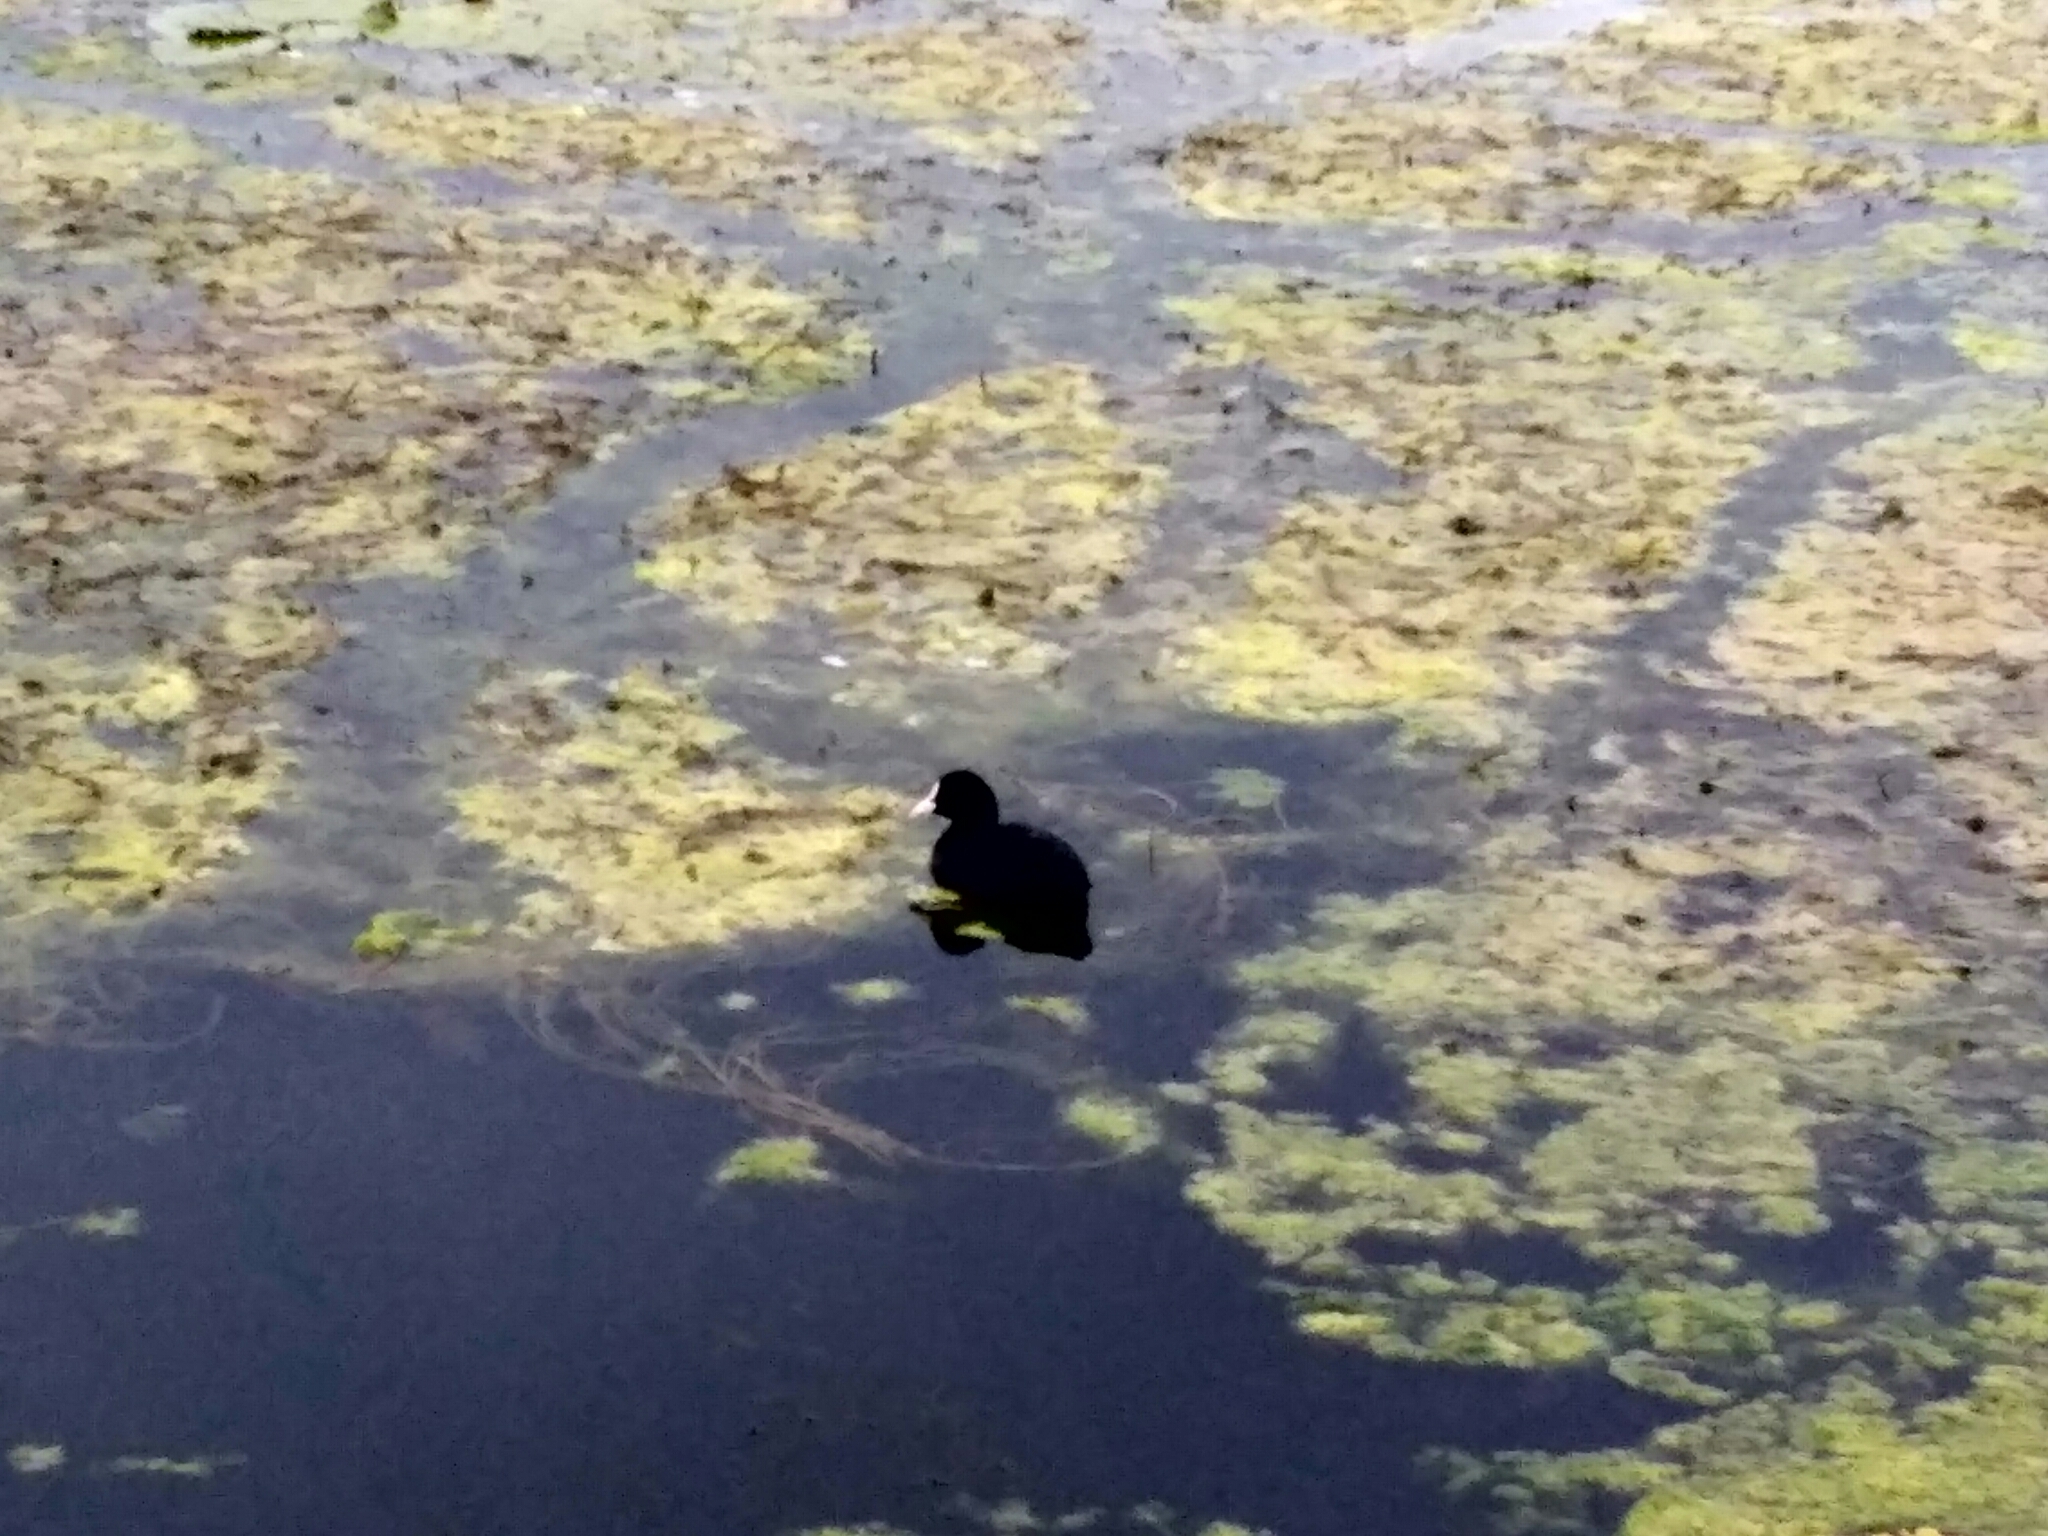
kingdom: Animalia
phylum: Chordata
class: Aves
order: Gruiformes
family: Rallidae
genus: Fulica
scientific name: Fulica atra
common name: Eurasian coot
